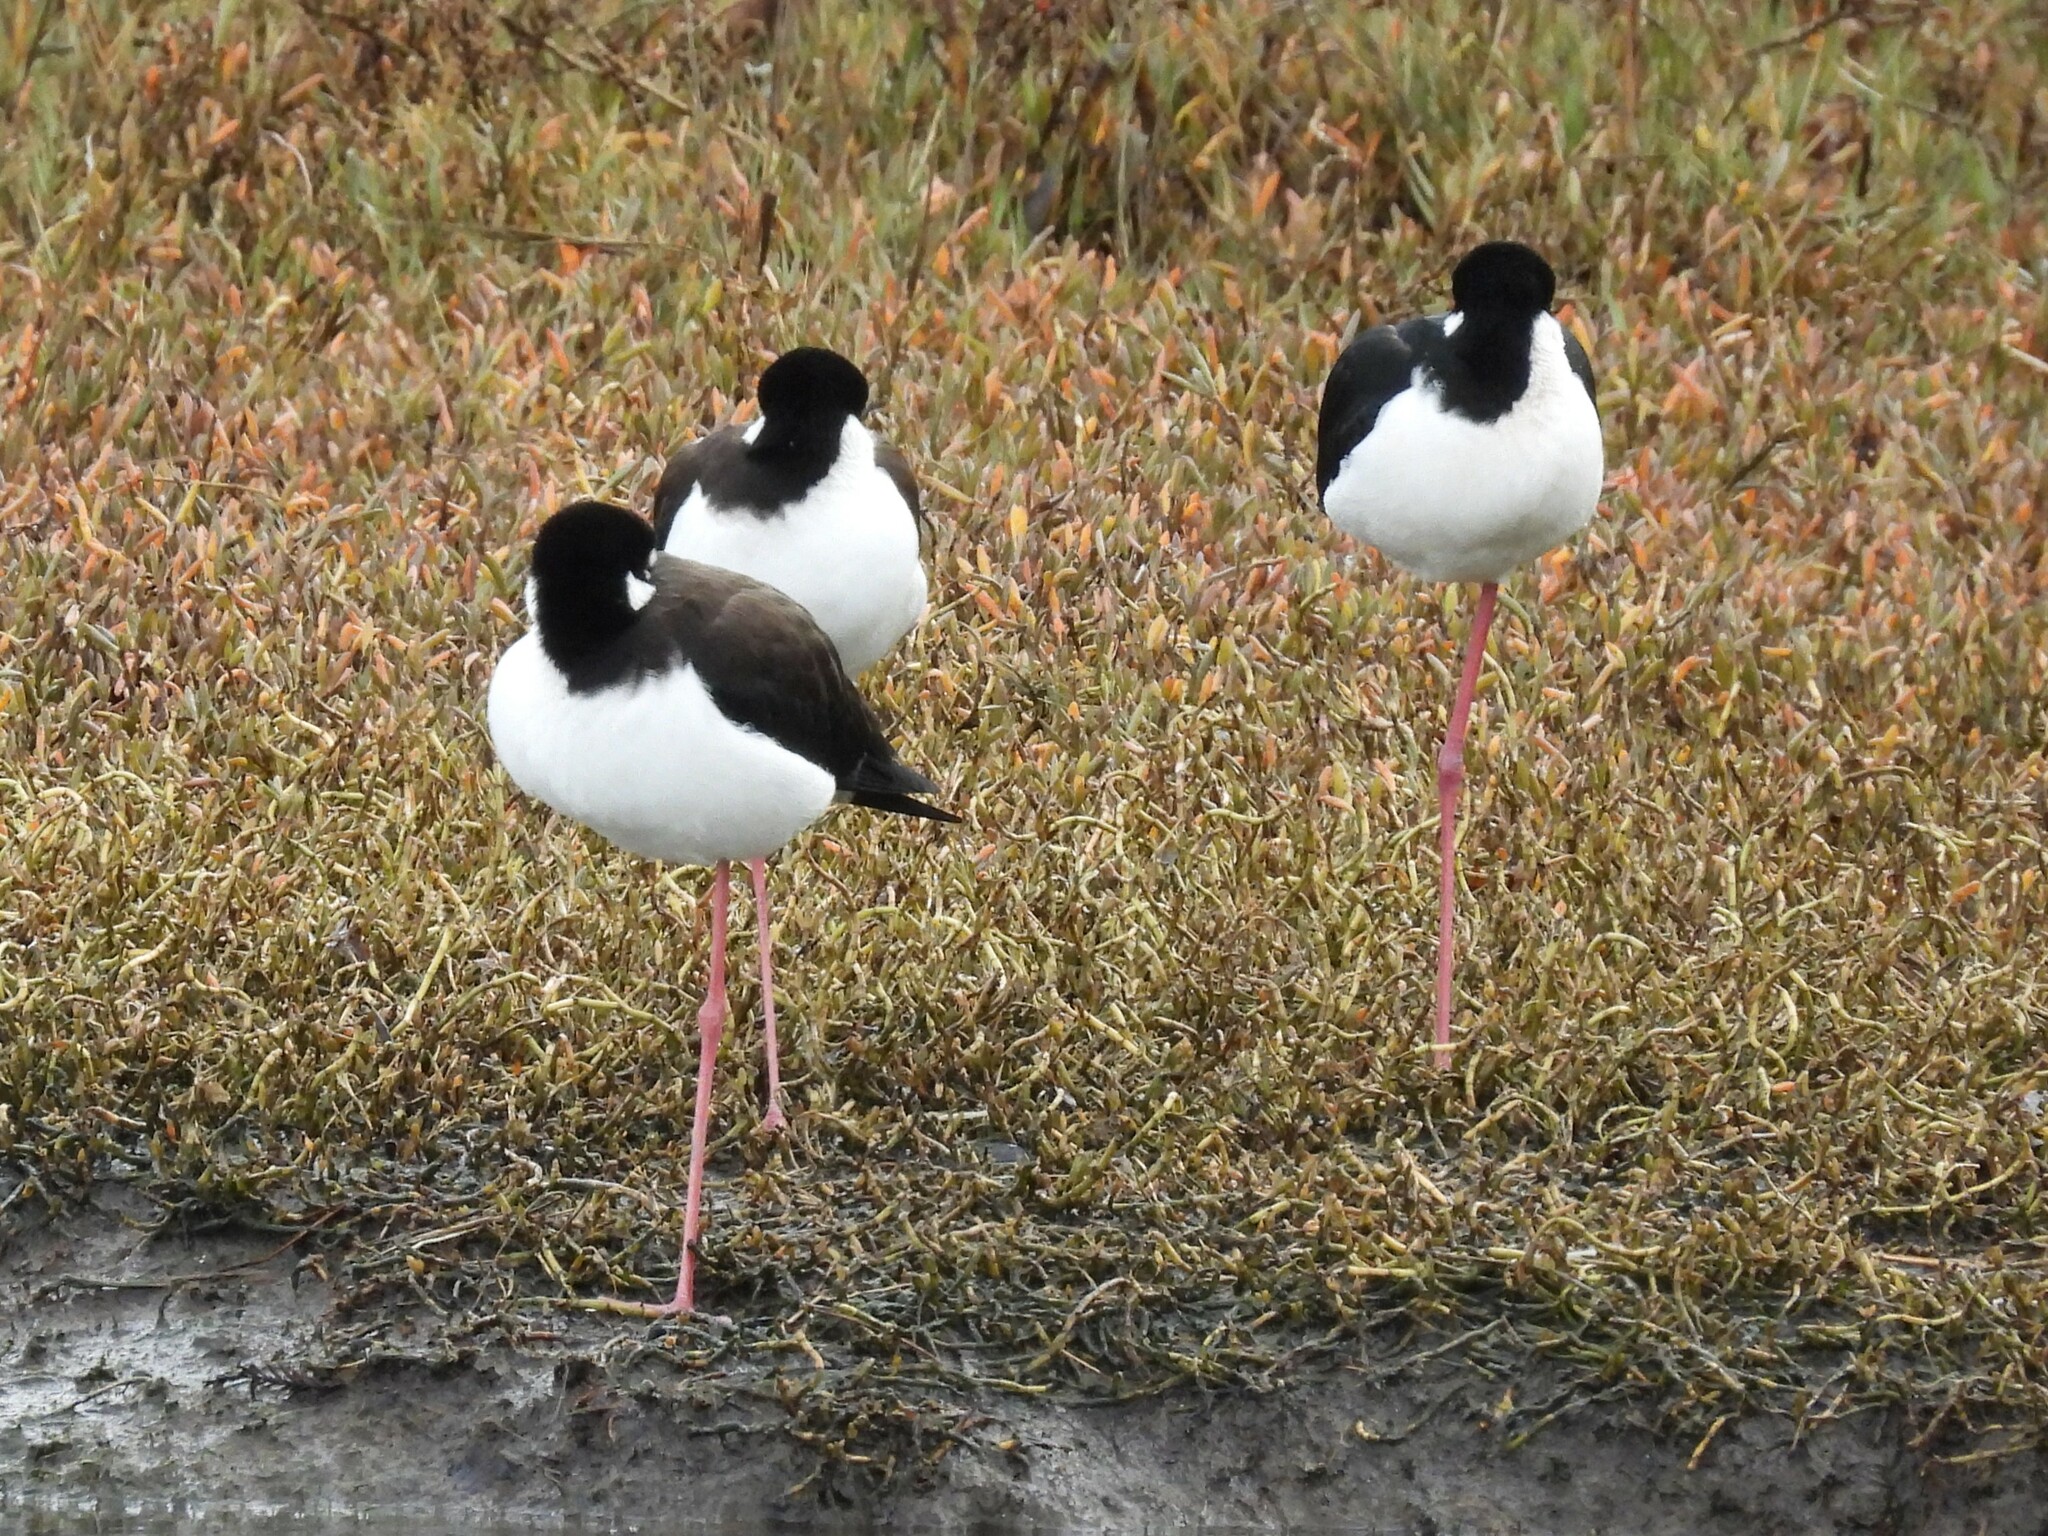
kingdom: Animalia
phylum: Chordata
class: Aves
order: Charadriiformes
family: Recurvirostridae
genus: Himantopus
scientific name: Himantopus mexicanus
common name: Black-necked stilt
